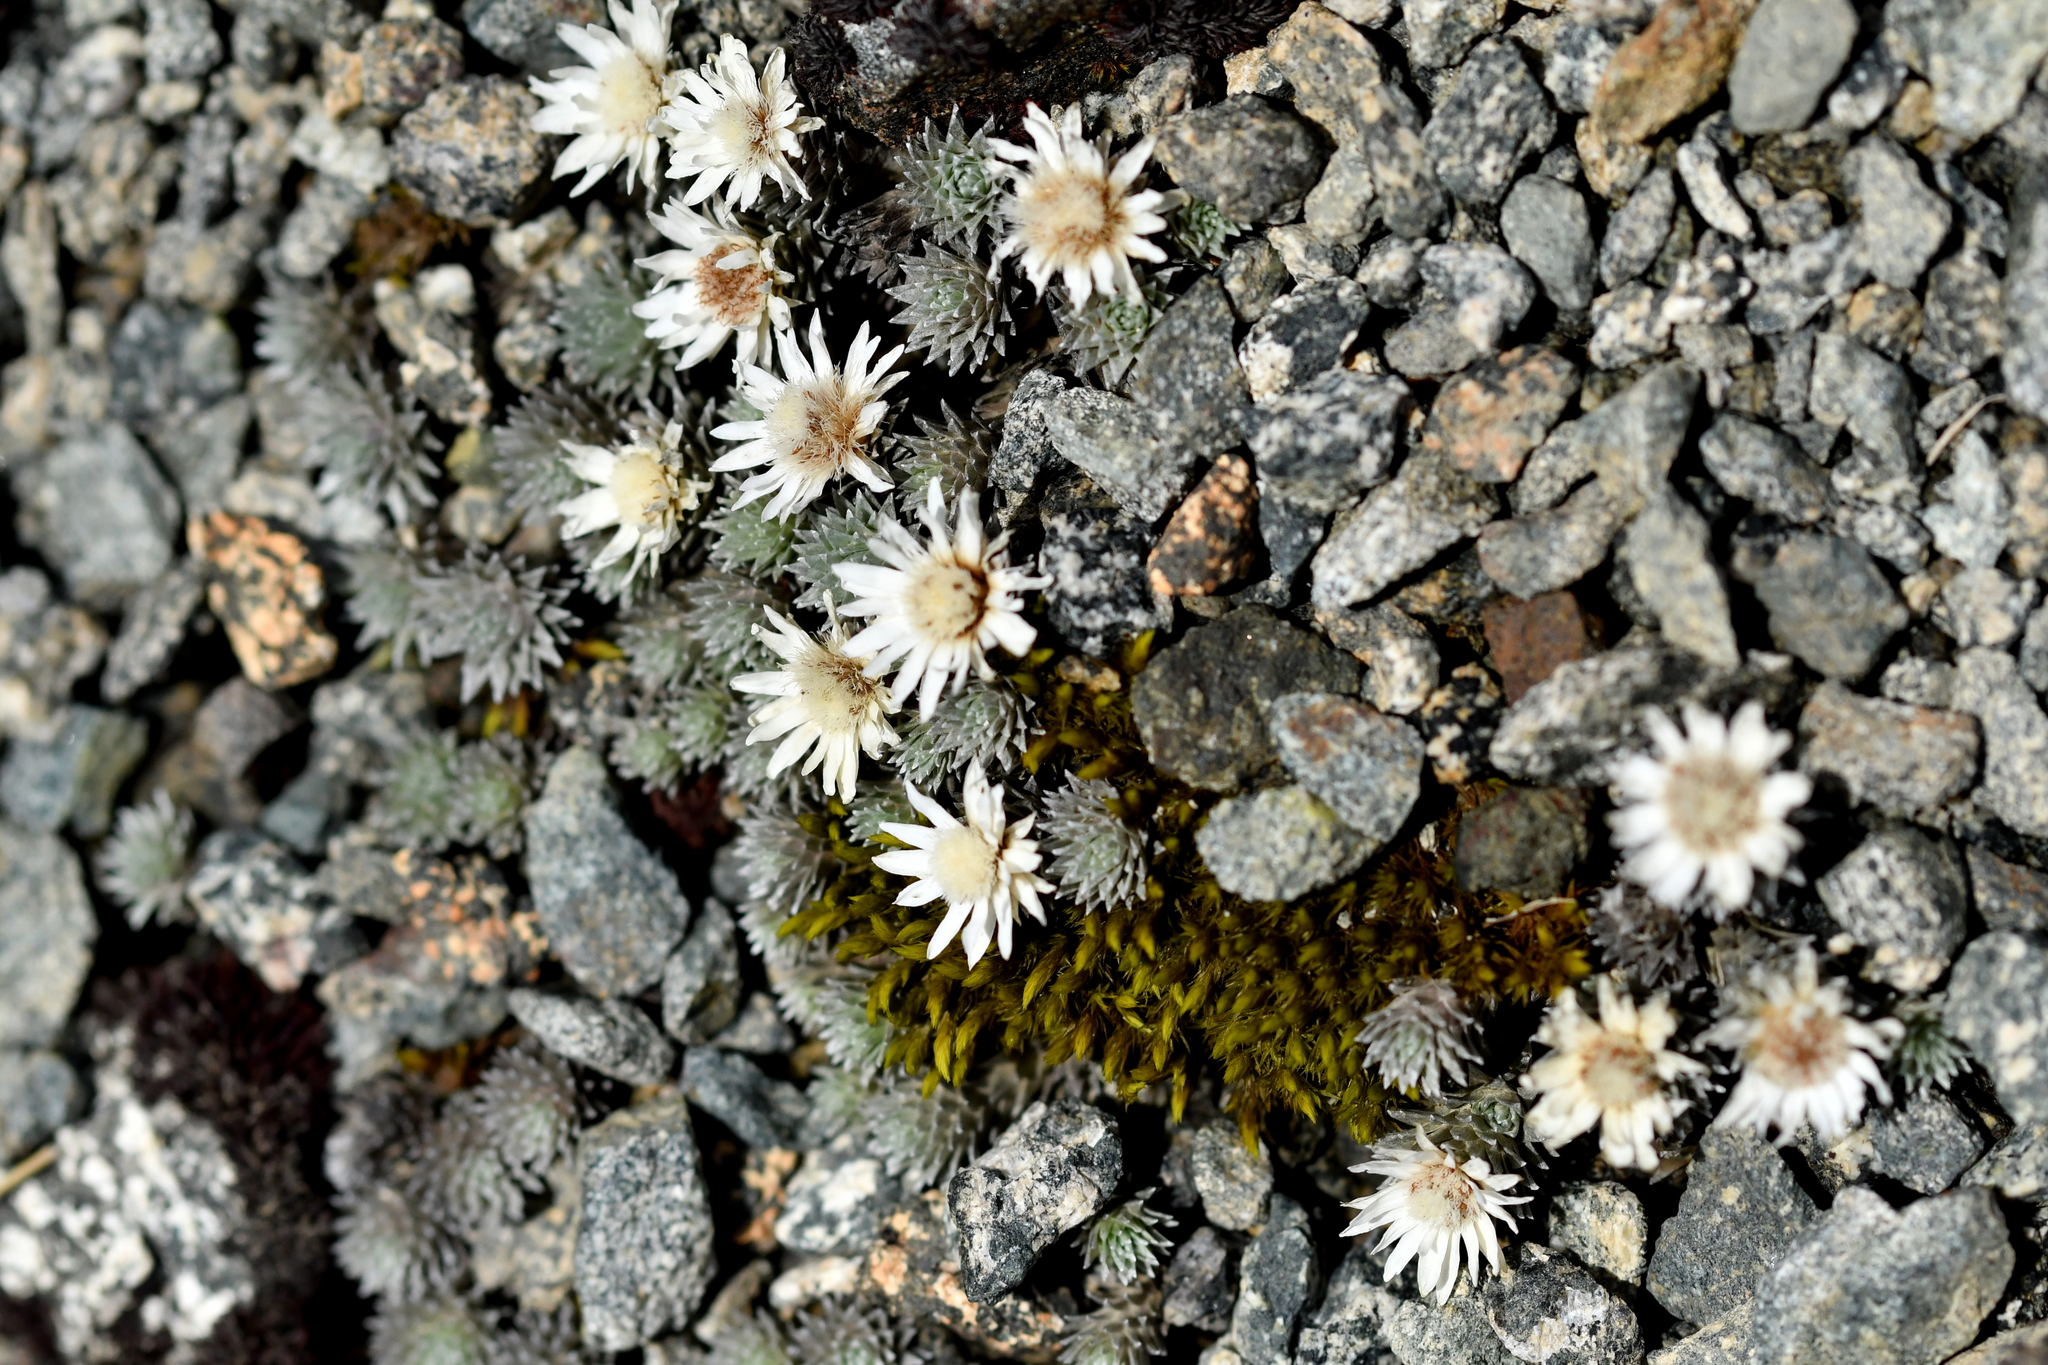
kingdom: Plantae
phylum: Tracheophyta
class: Magnoliopsida
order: Asterales
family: Asteraceae
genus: Raoulia
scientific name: Raoulia grandiflora
